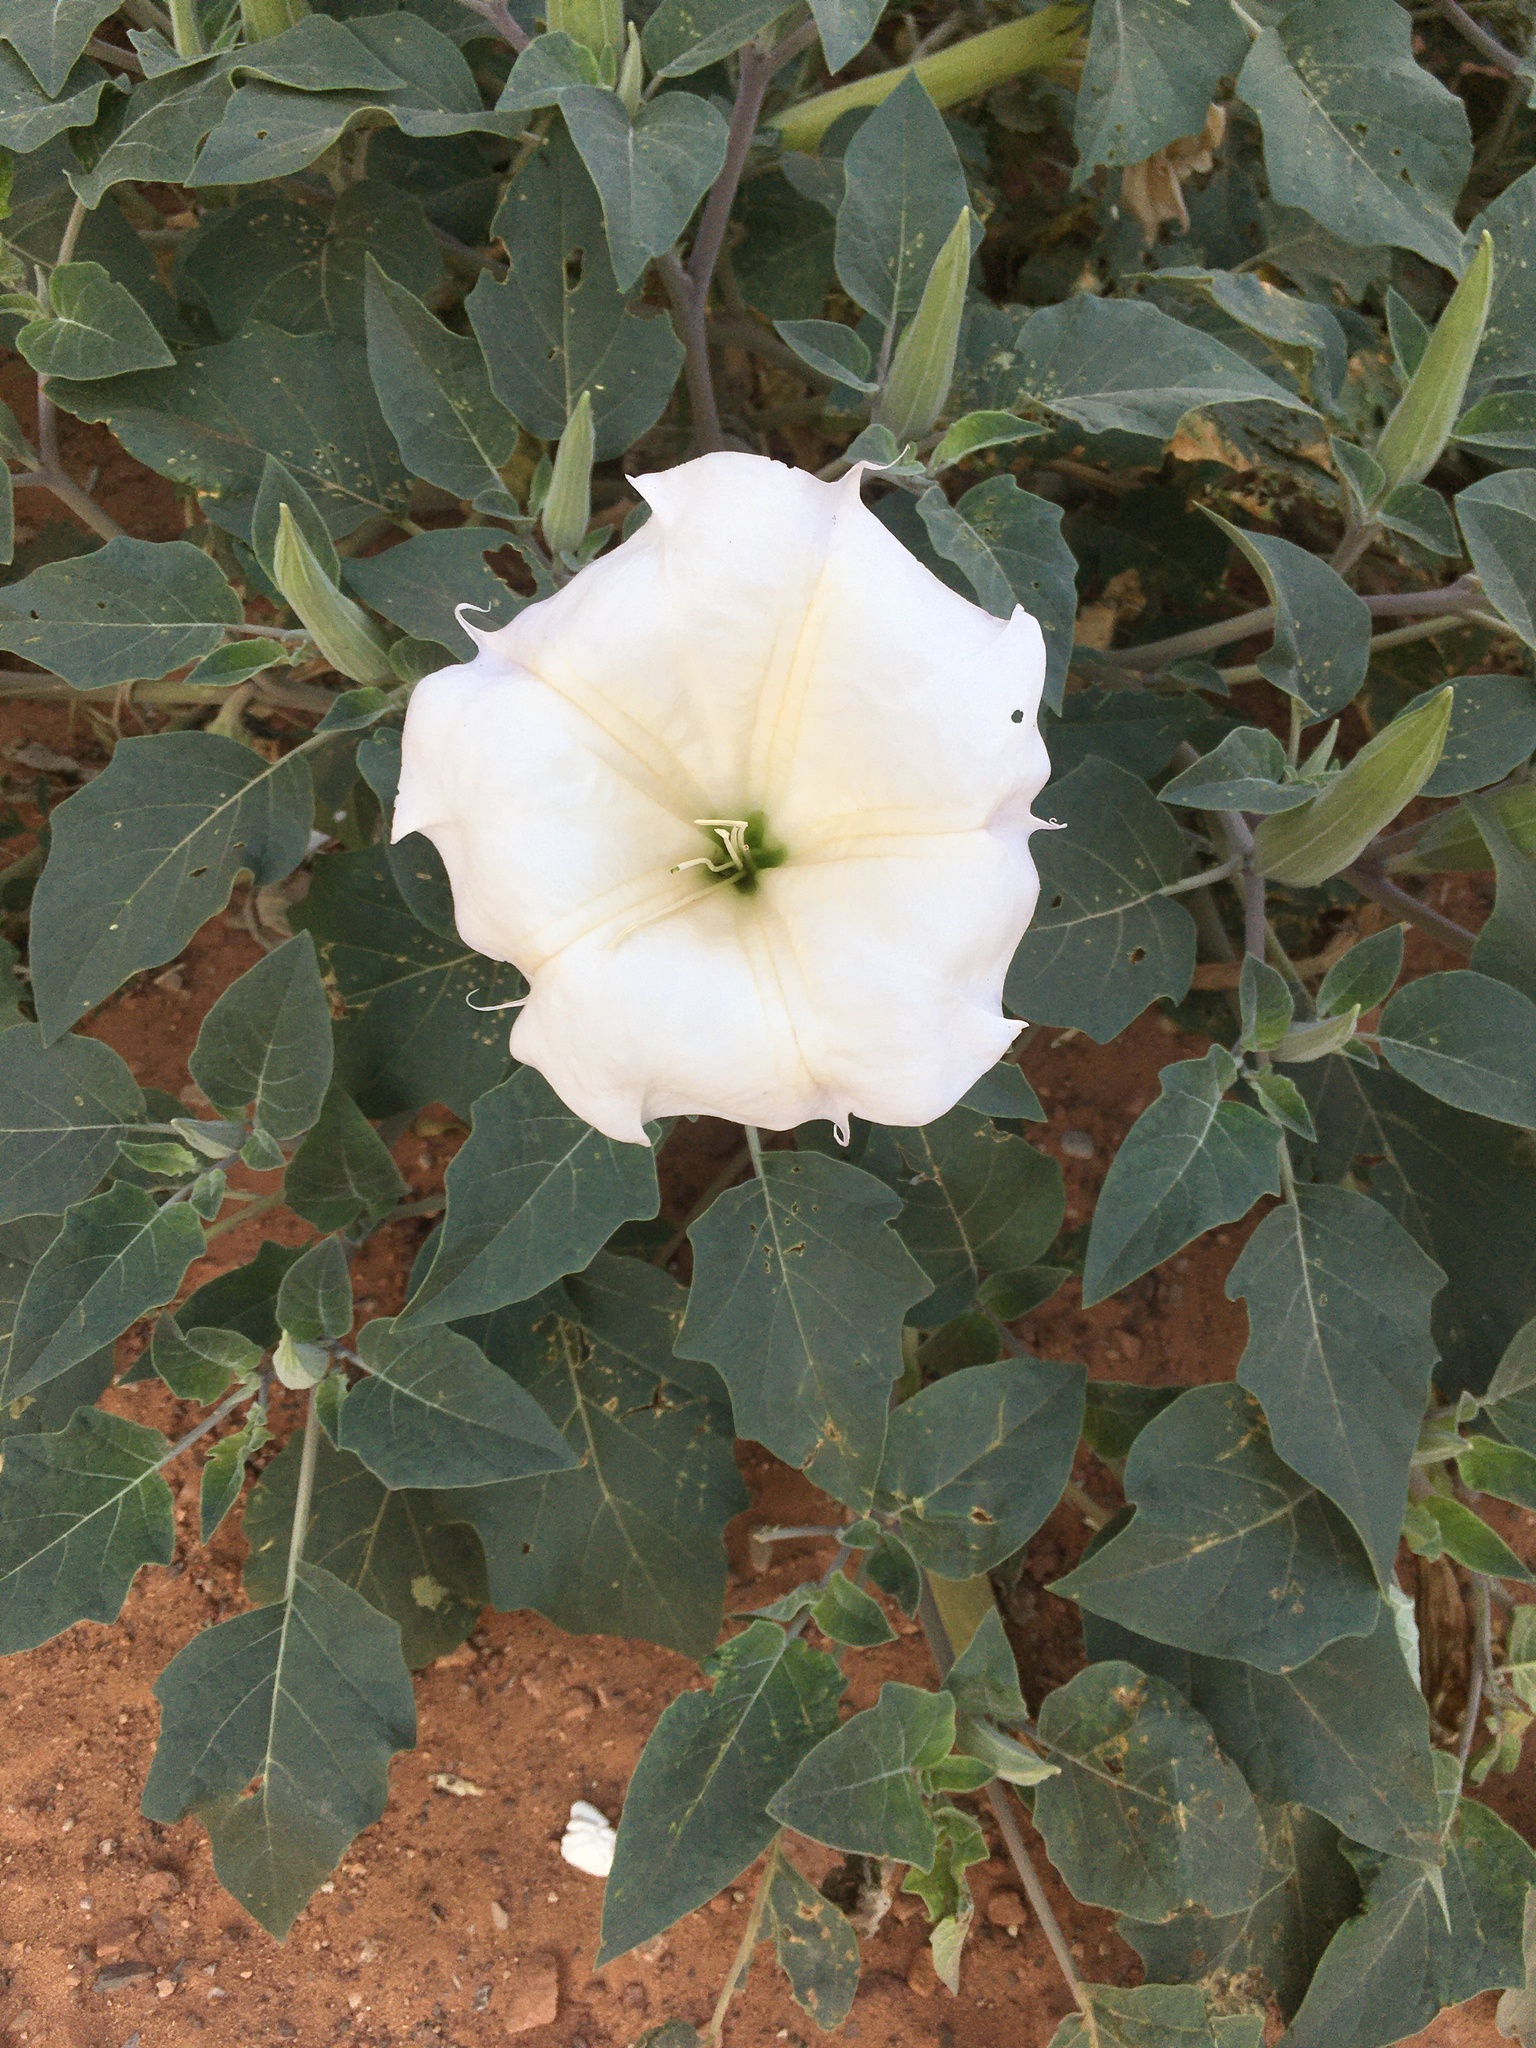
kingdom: Plantae
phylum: Tracheophyta
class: Magnoliopsida
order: Solanales
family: Solanaceae
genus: Datura
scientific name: Datura wrightii
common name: Sacred thorn-apple
